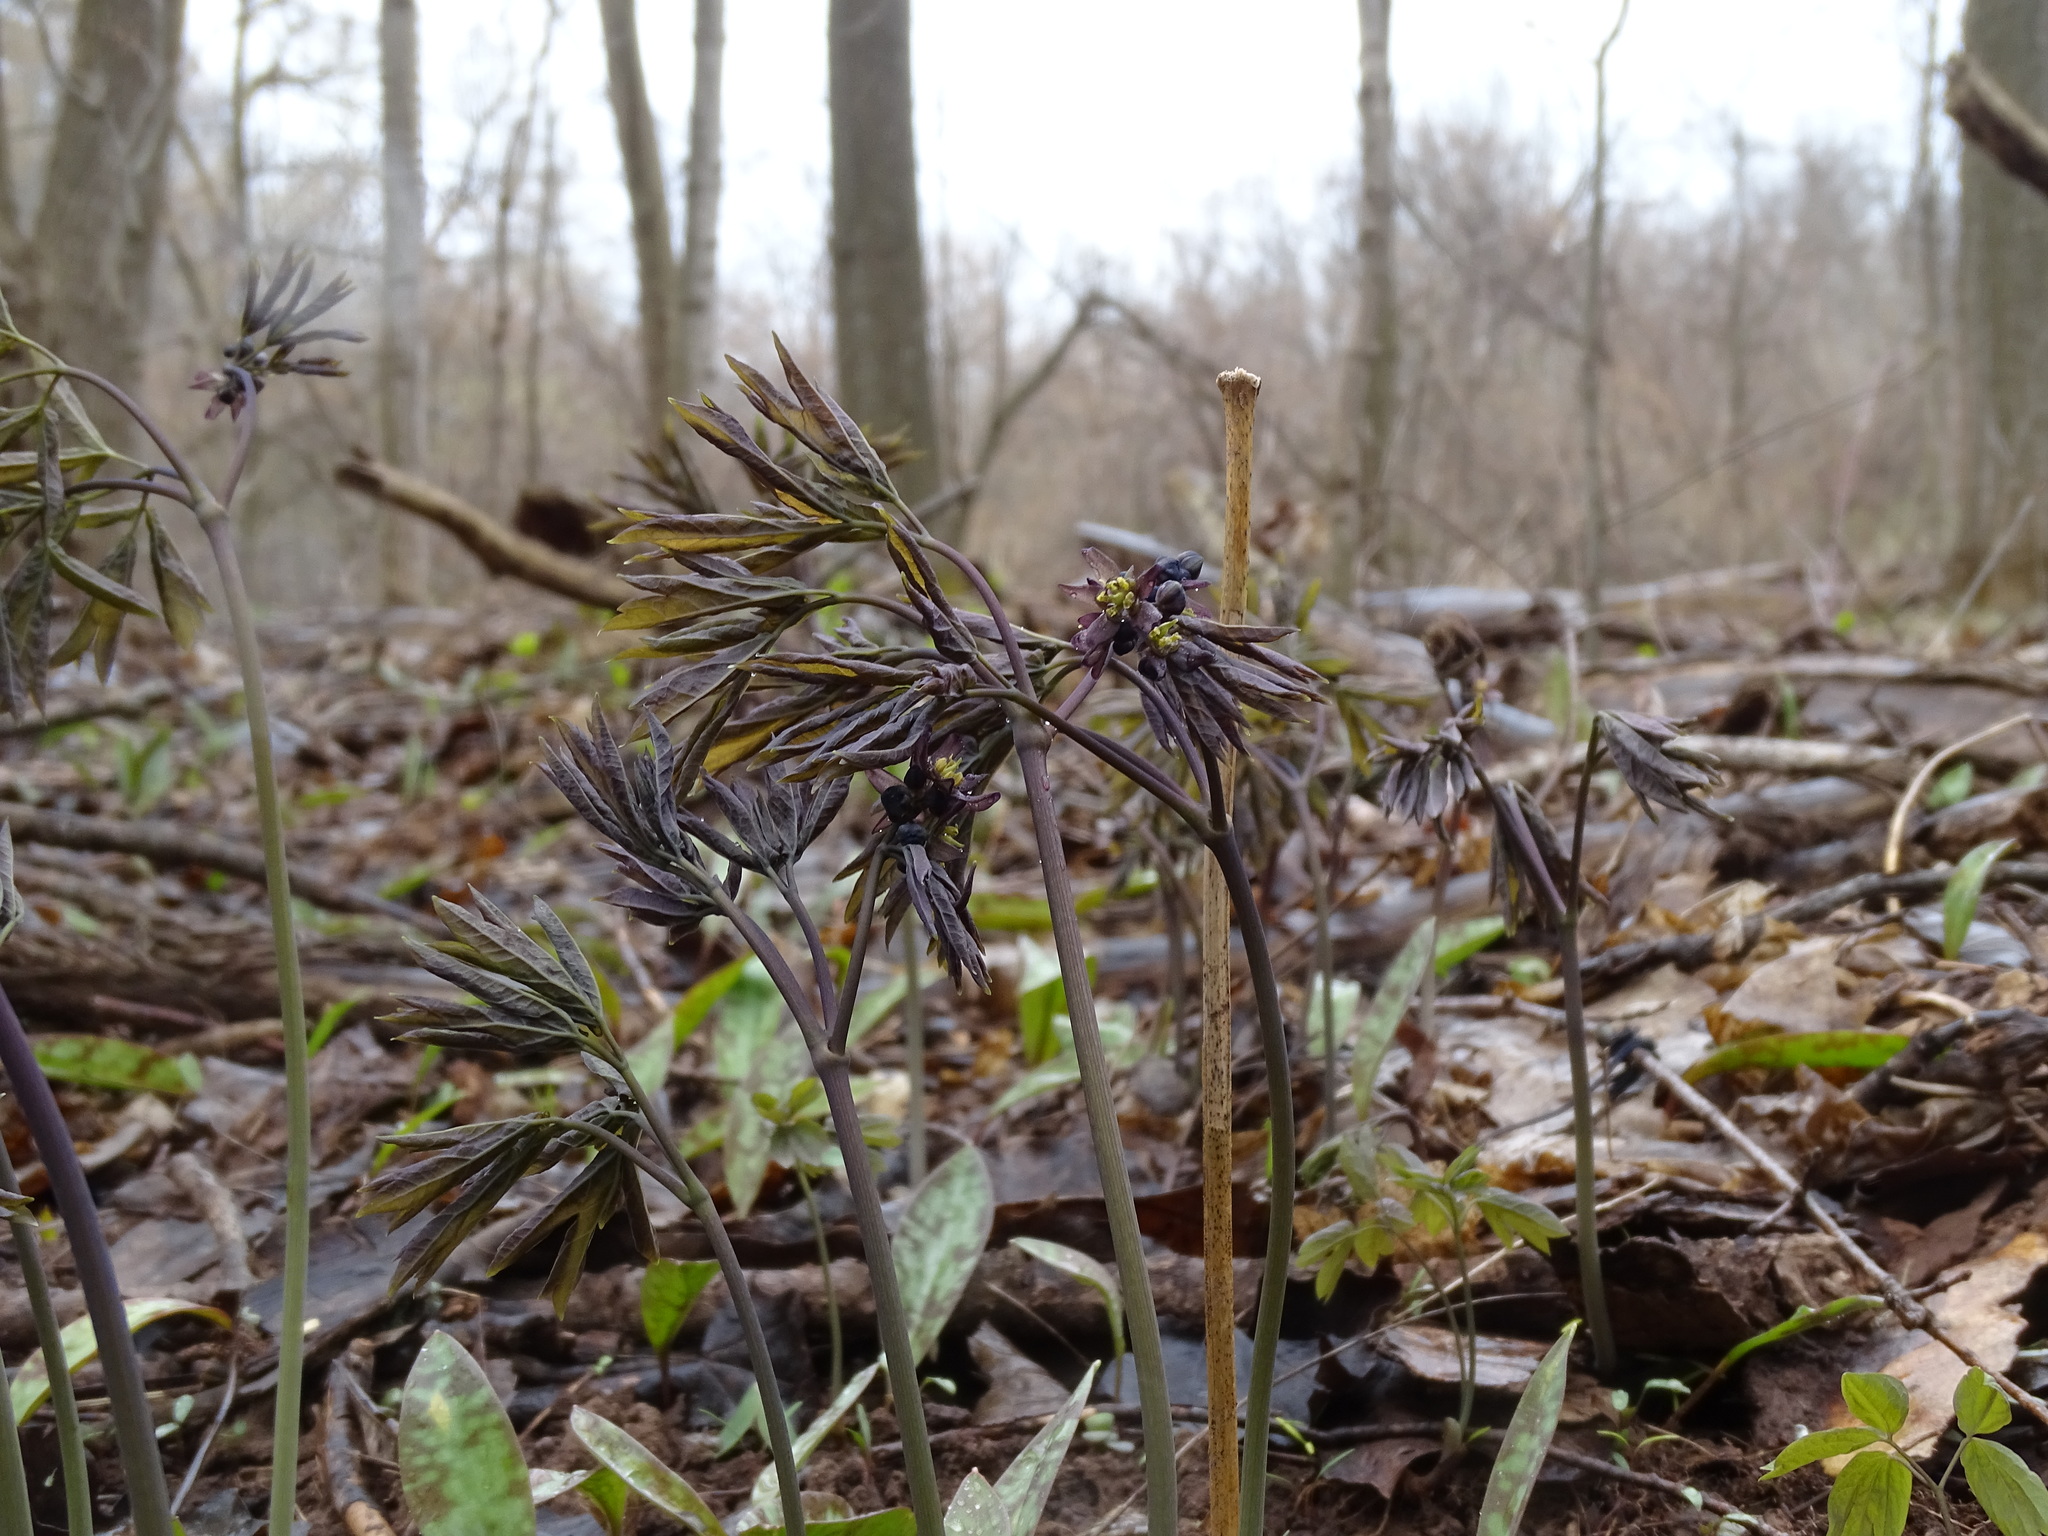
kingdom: Plantae
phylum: Tracheophyta
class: Magnoliopsida
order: Ranunculales
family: Berberidaceae
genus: Caulophyllum
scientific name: Caulophyllum giganteum
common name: Blue cohosh
